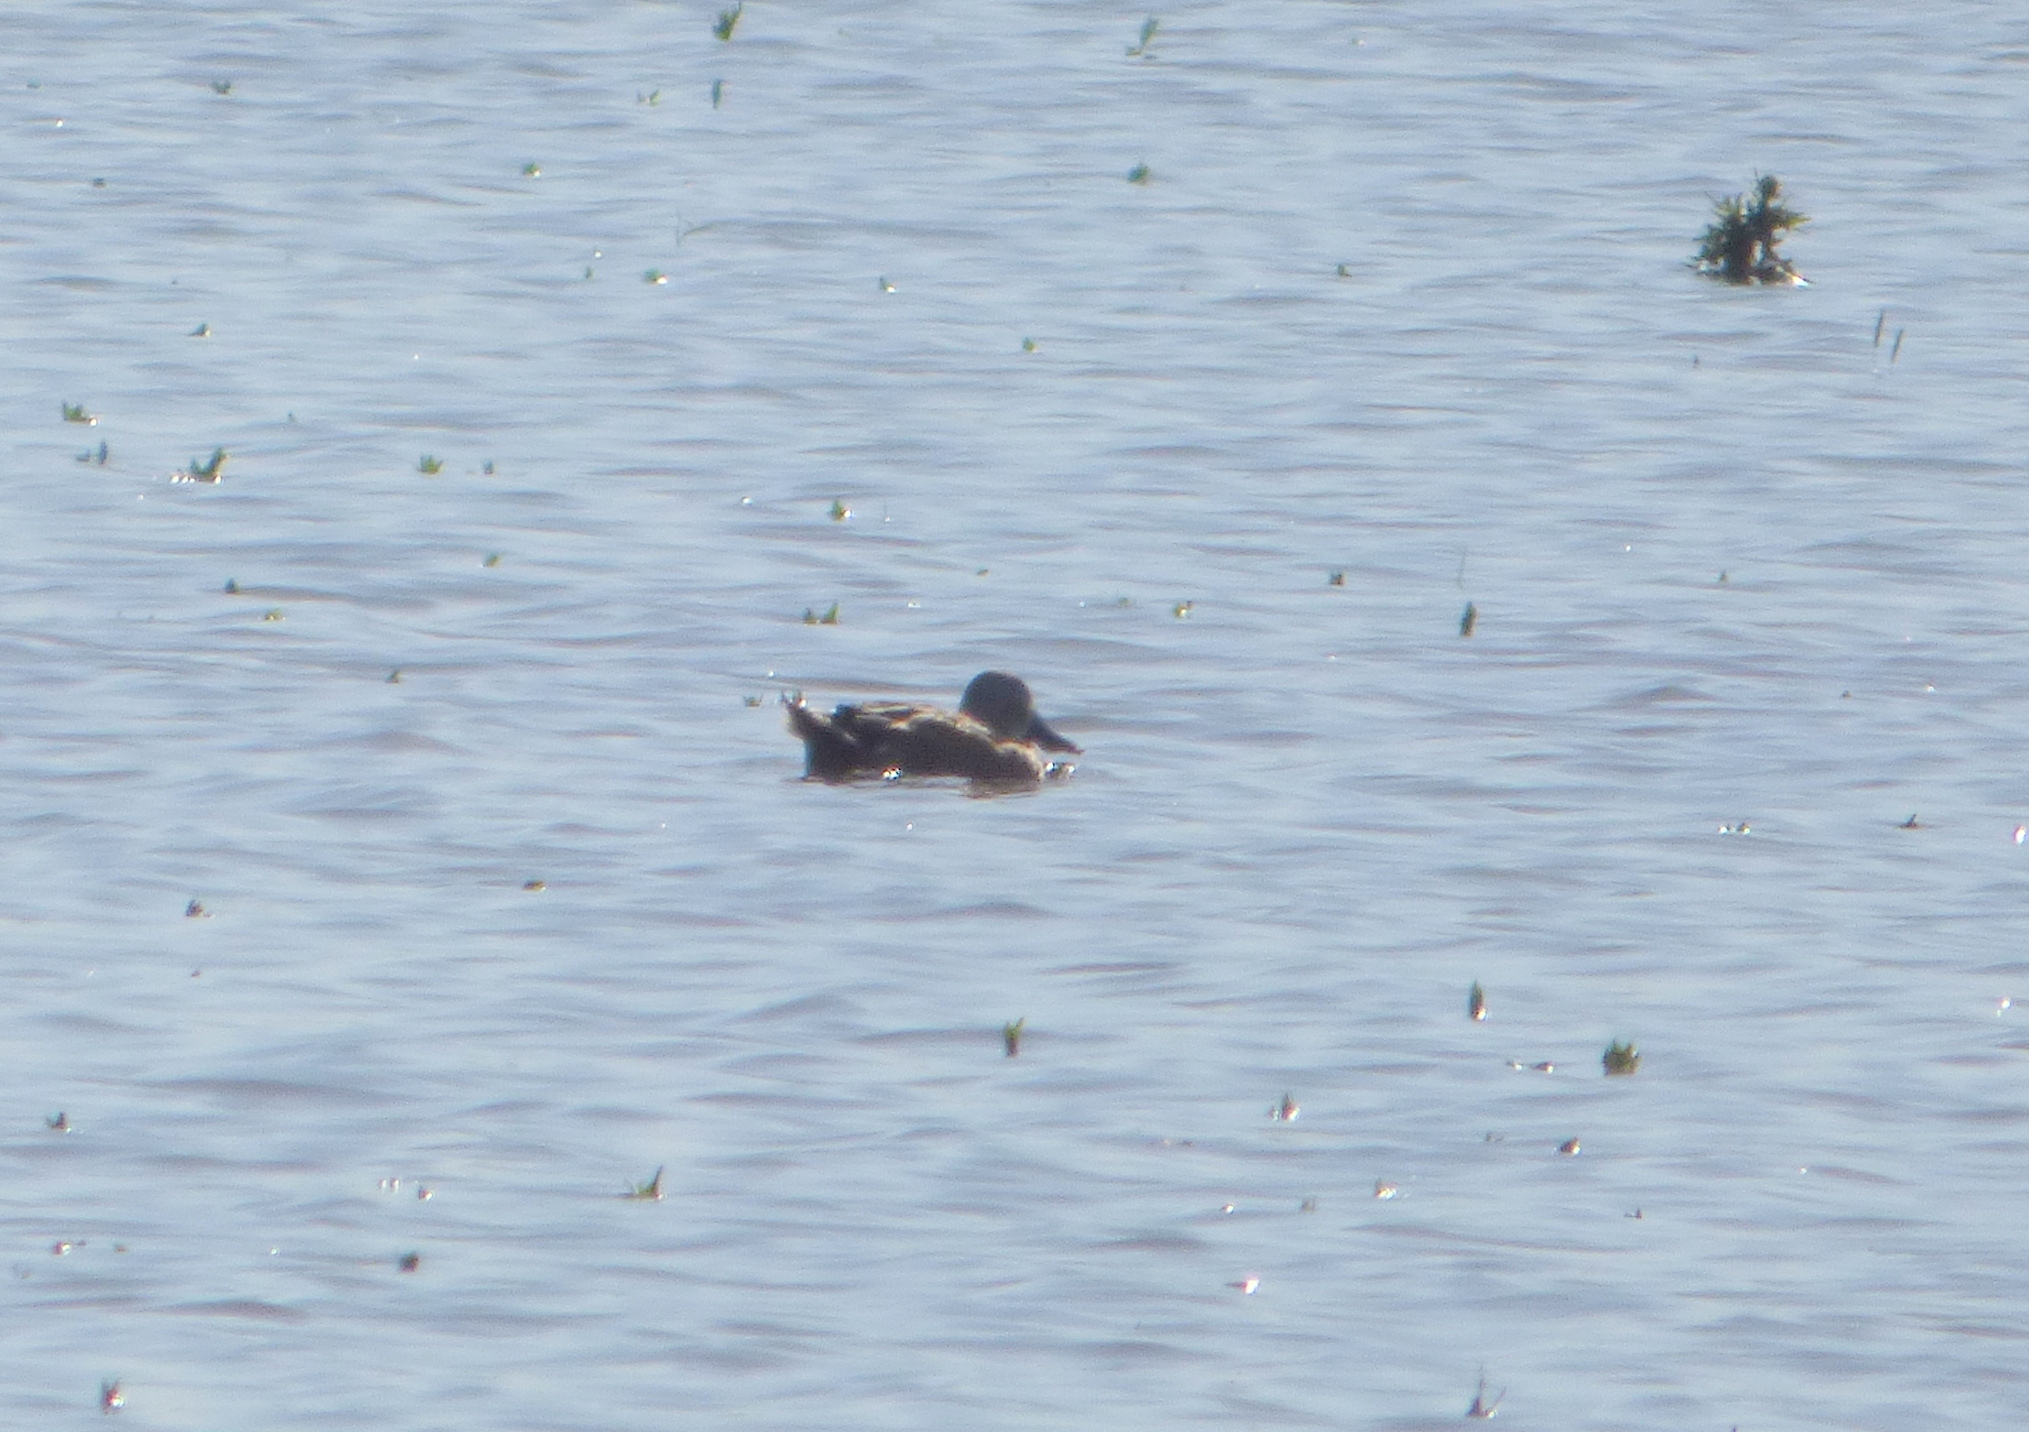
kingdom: Animalia
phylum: Chordata
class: Aves
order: Anseriformes
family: Anatidae
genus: Spatula
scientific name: Spatula platalea
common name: Red shoveler
